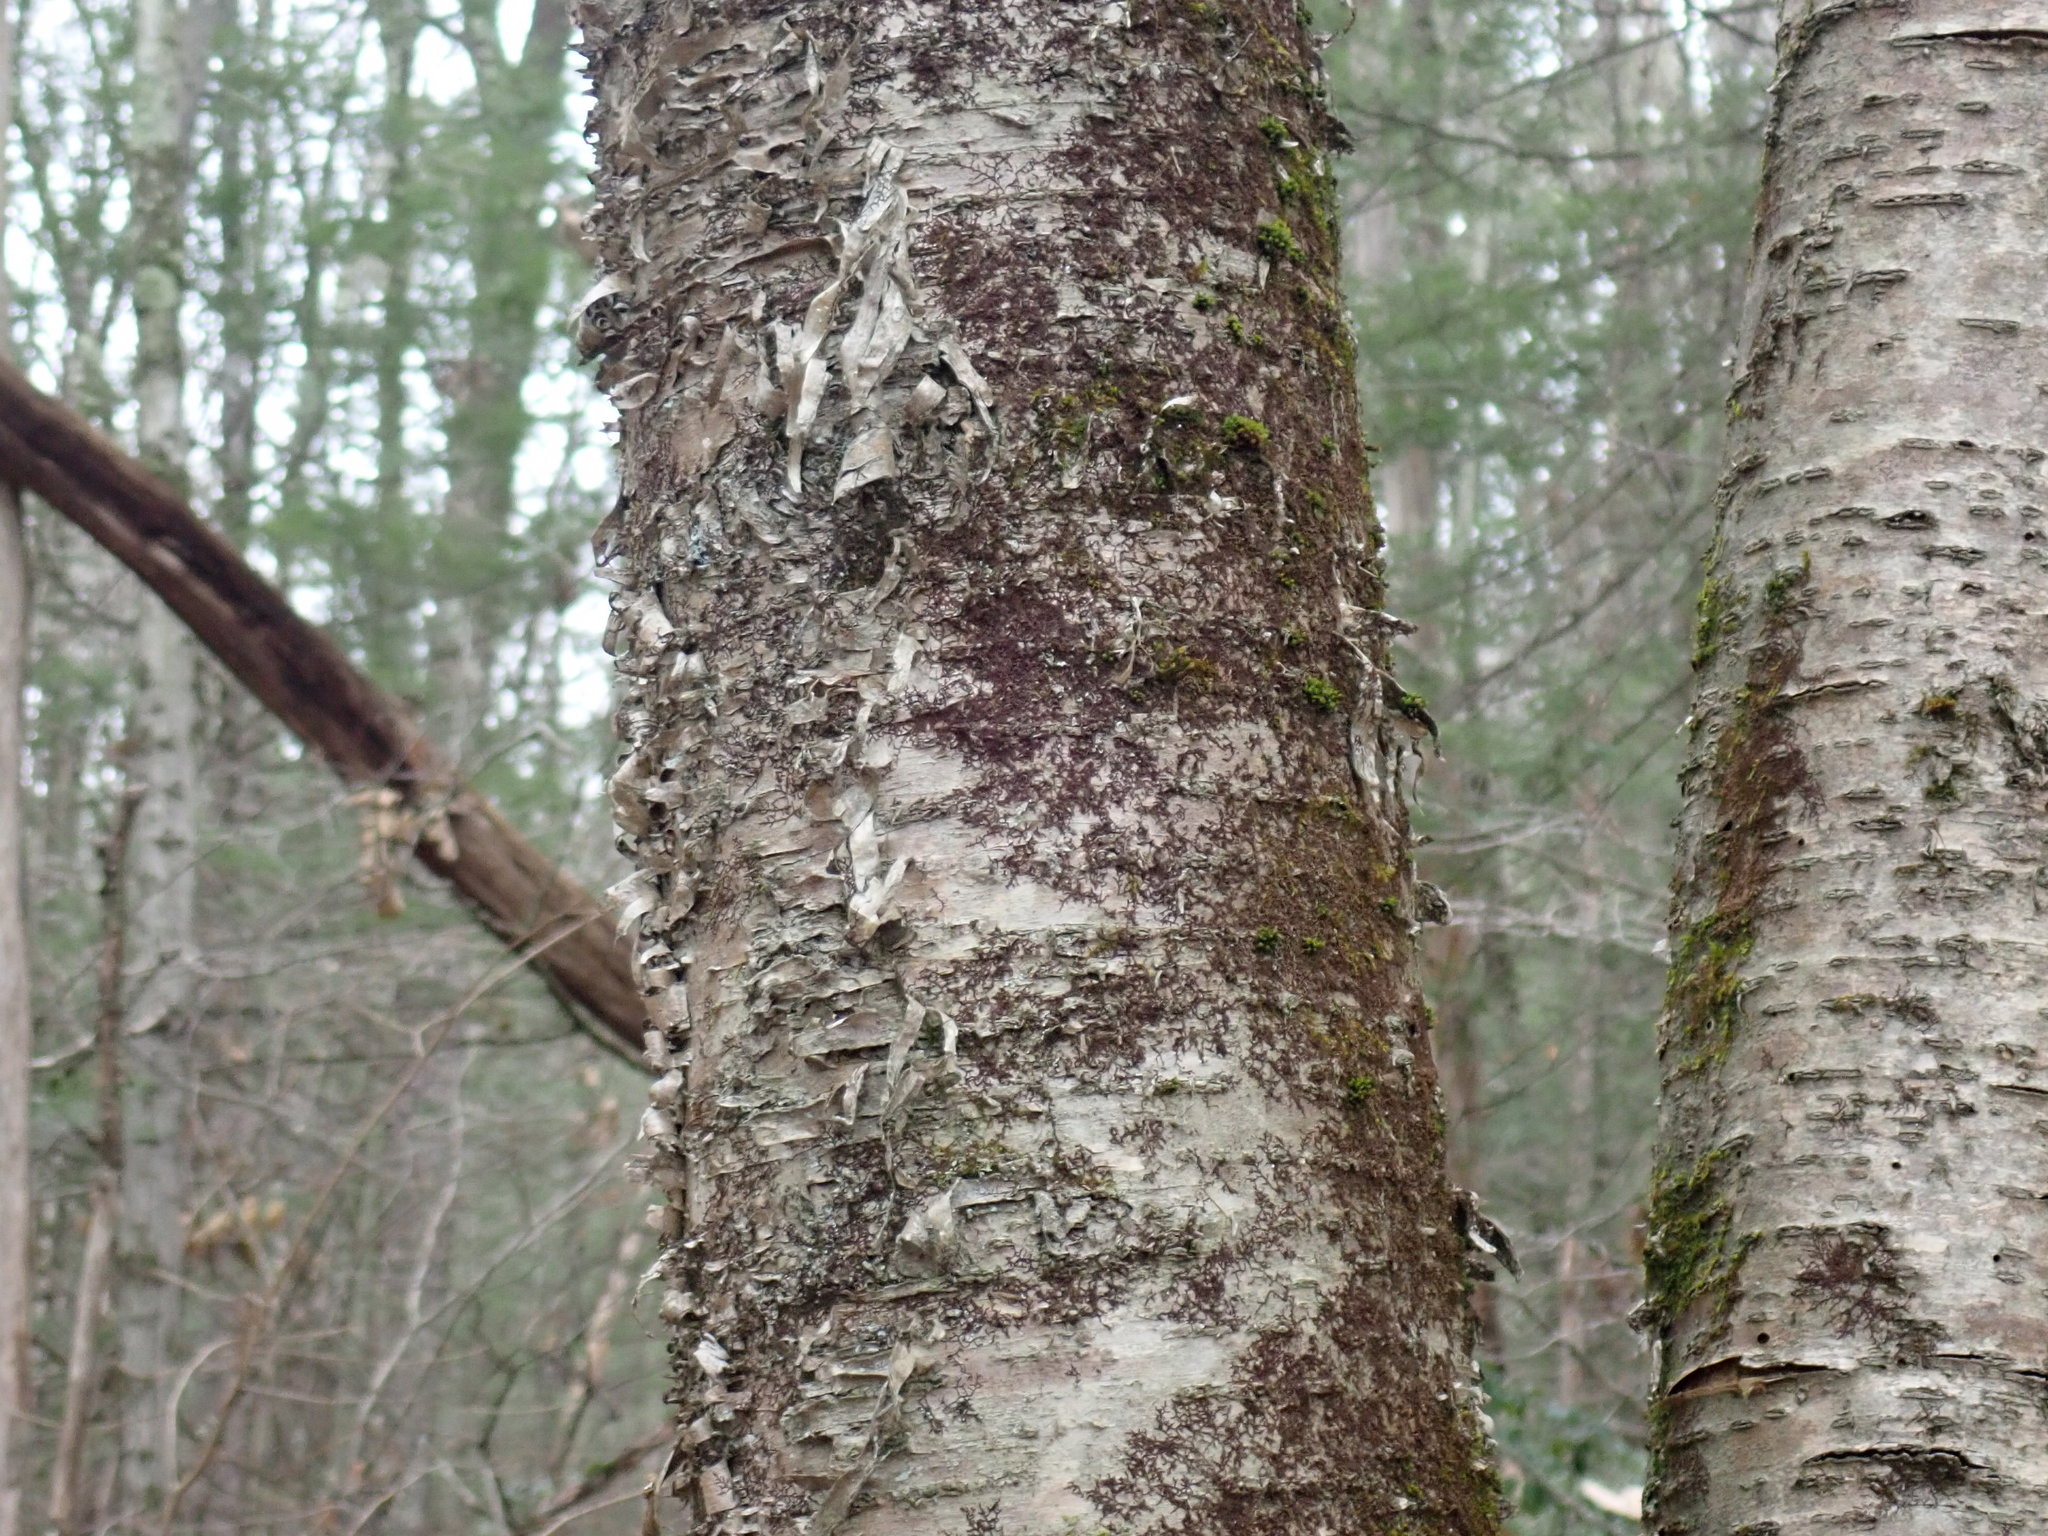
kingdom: Plantae
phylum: Tracheophyta
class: Magnoliopsida
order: Fagales
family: Betulaceae
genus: Betula
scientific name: Betula alleghaniensis
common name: Yellow birch
